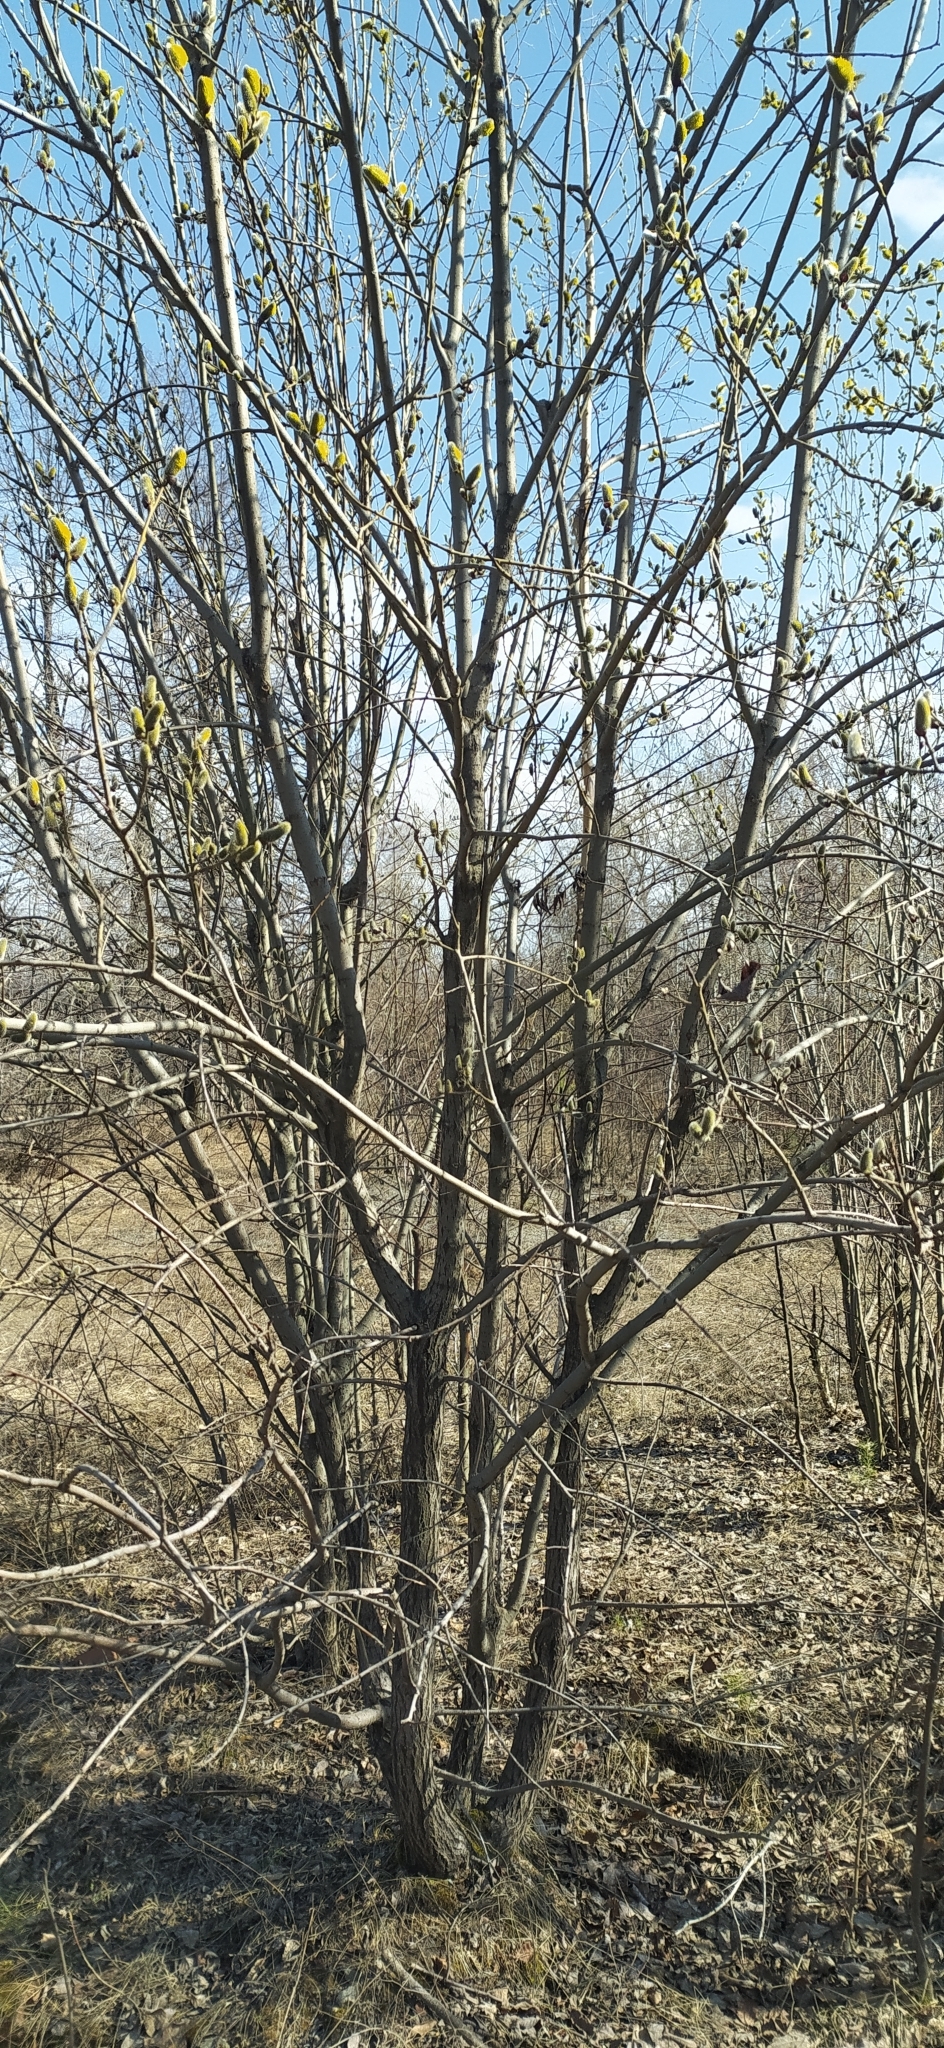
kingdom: Plantae
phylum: Tracheophyta
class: Magnoliopsida
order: Malpighiales
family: Salicaceae
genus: Salix
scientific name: Salix caprea
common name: Goat willow
